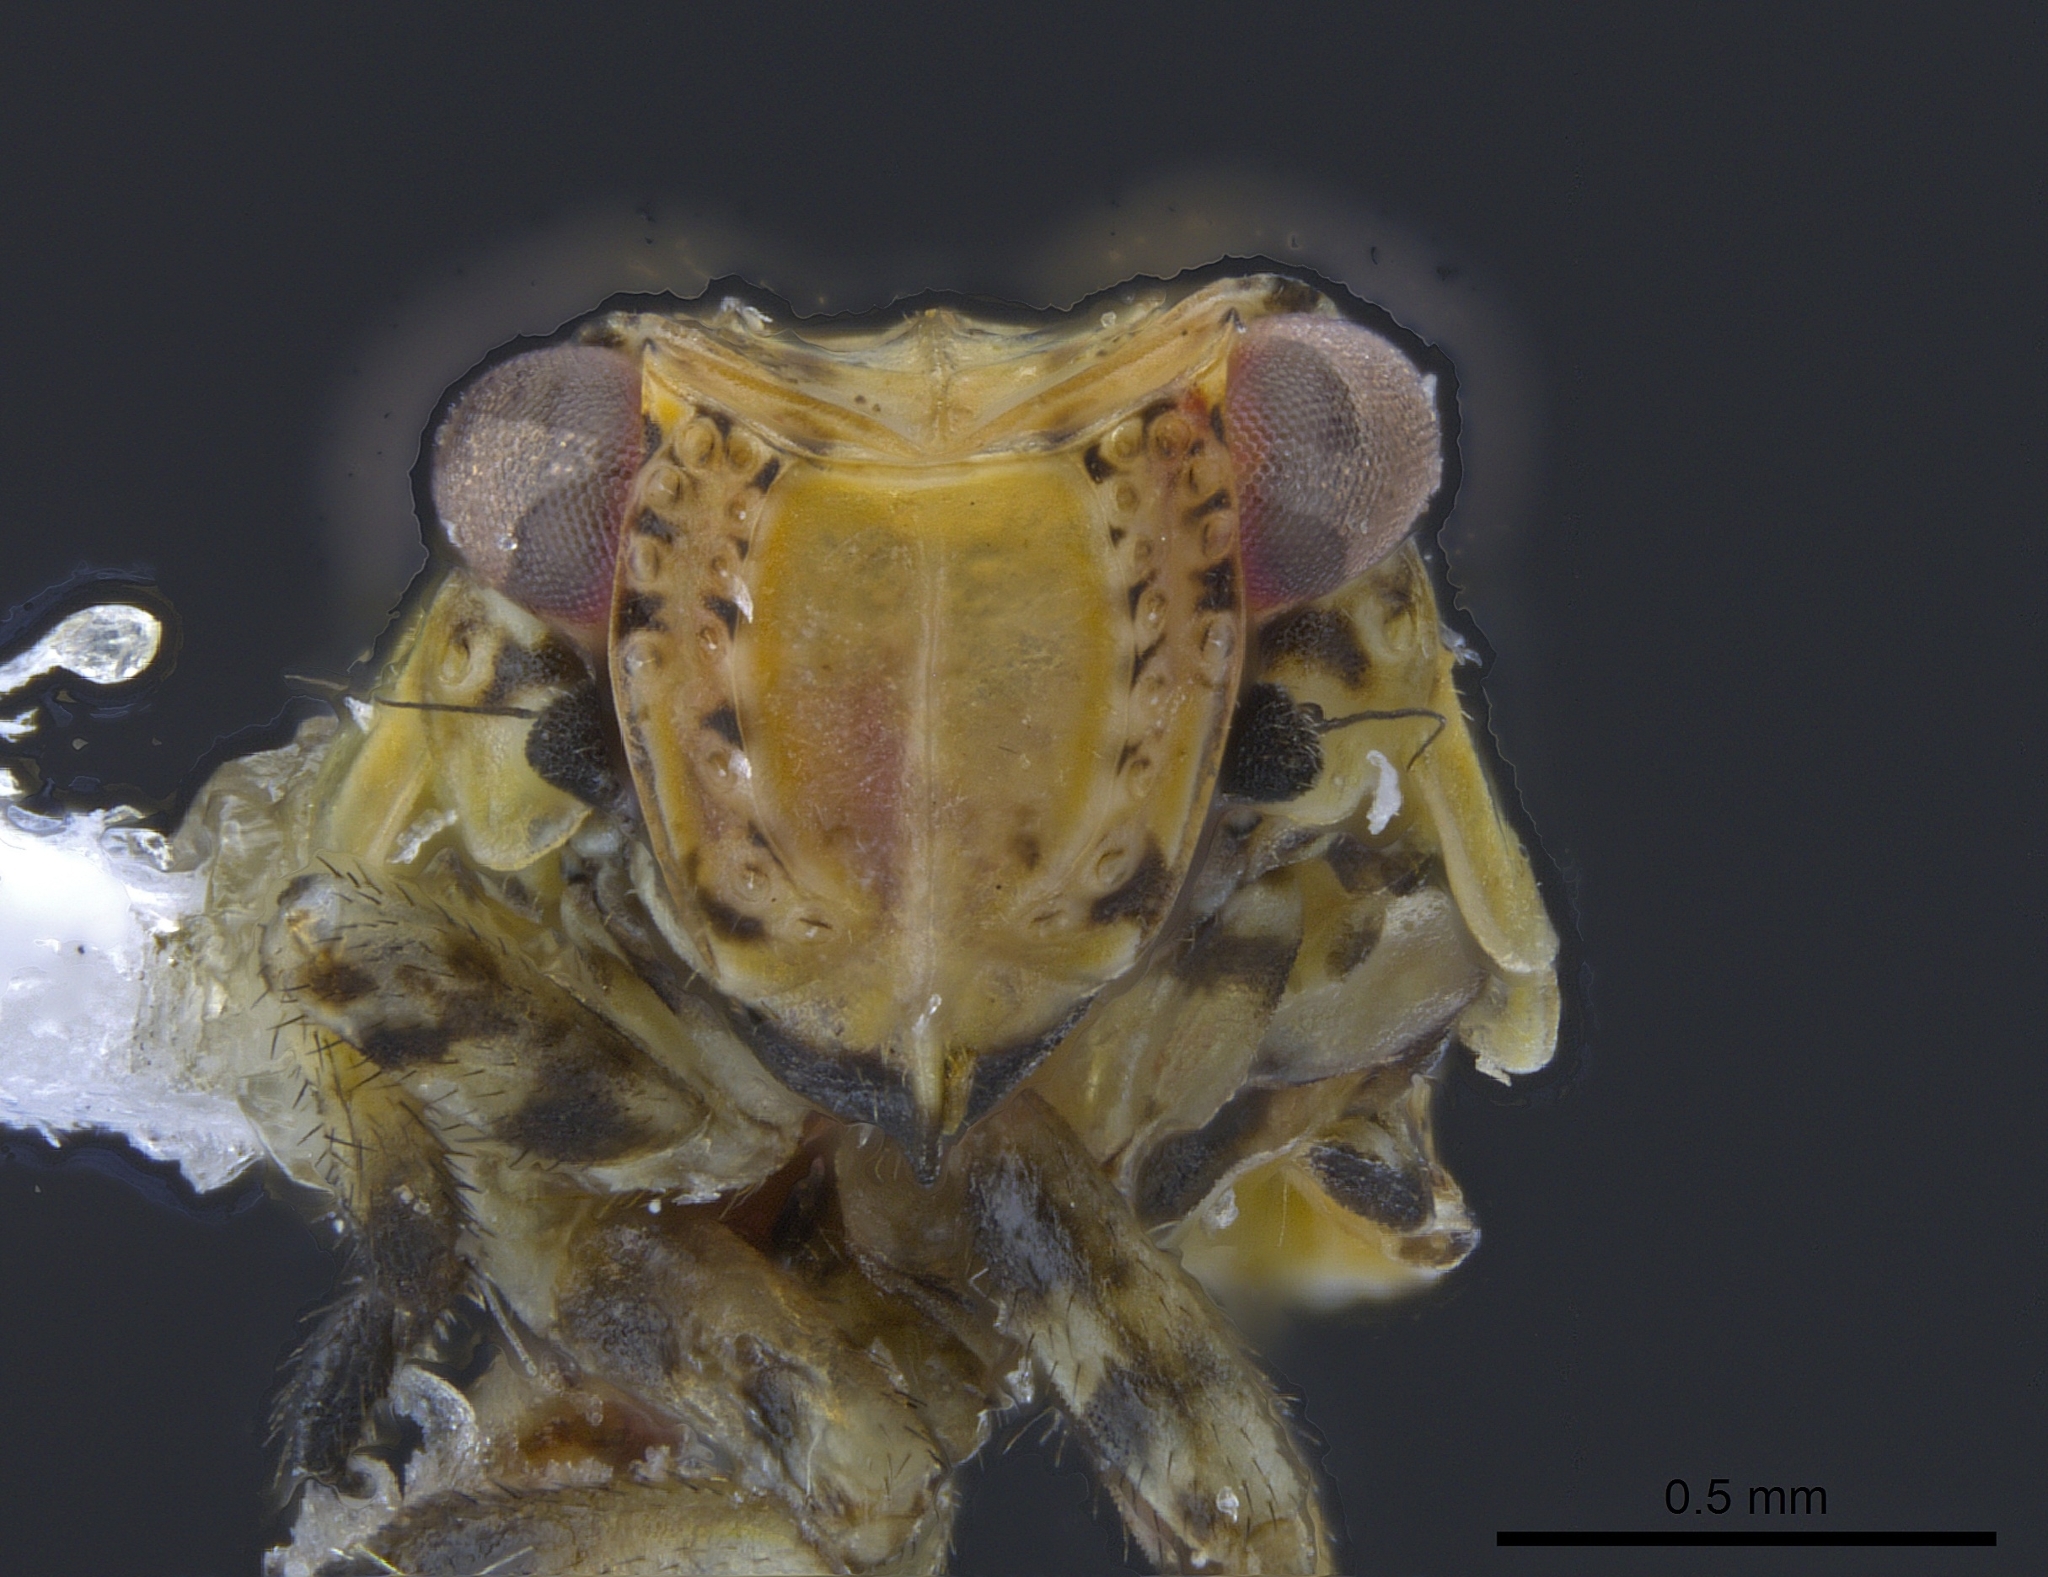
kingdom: Animalia
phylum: Arthropoda
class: Insecta
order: Hemiptera
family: Caliscelidae
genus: Nenema
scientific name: Nenema rugosa
